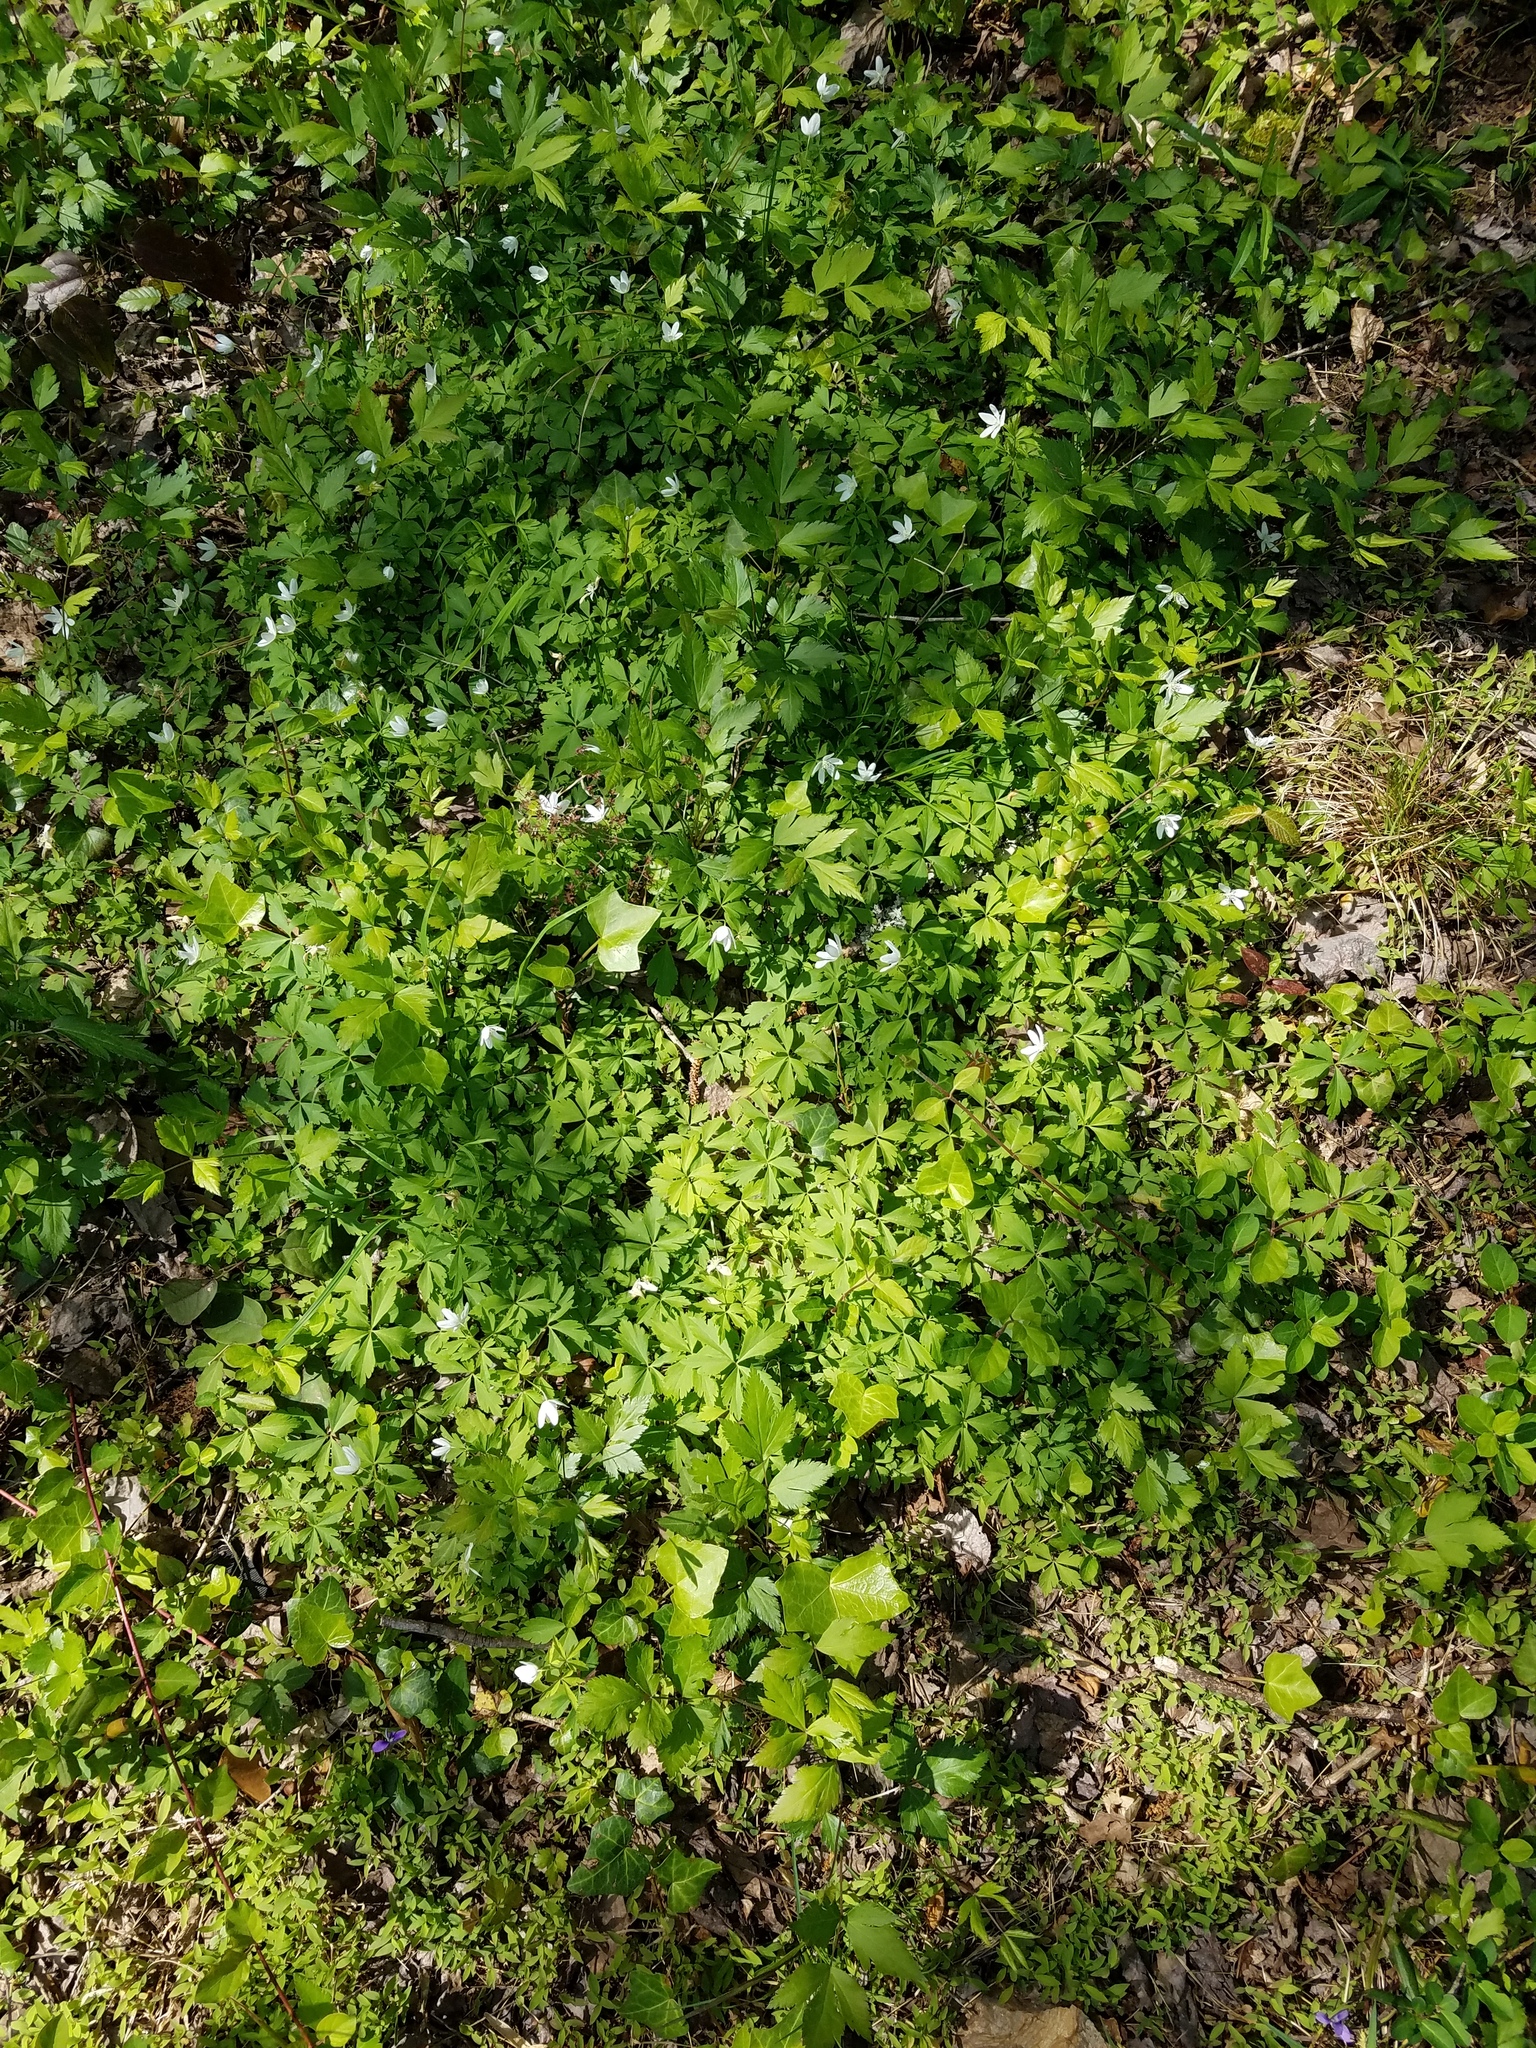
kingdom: Plantae
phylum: Tracheophyta
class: Magnoliopsida
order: Ranunculales
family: Ranunculaceae
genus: Anemone
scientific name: Anemone quinquefolia
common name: Wood anemone
